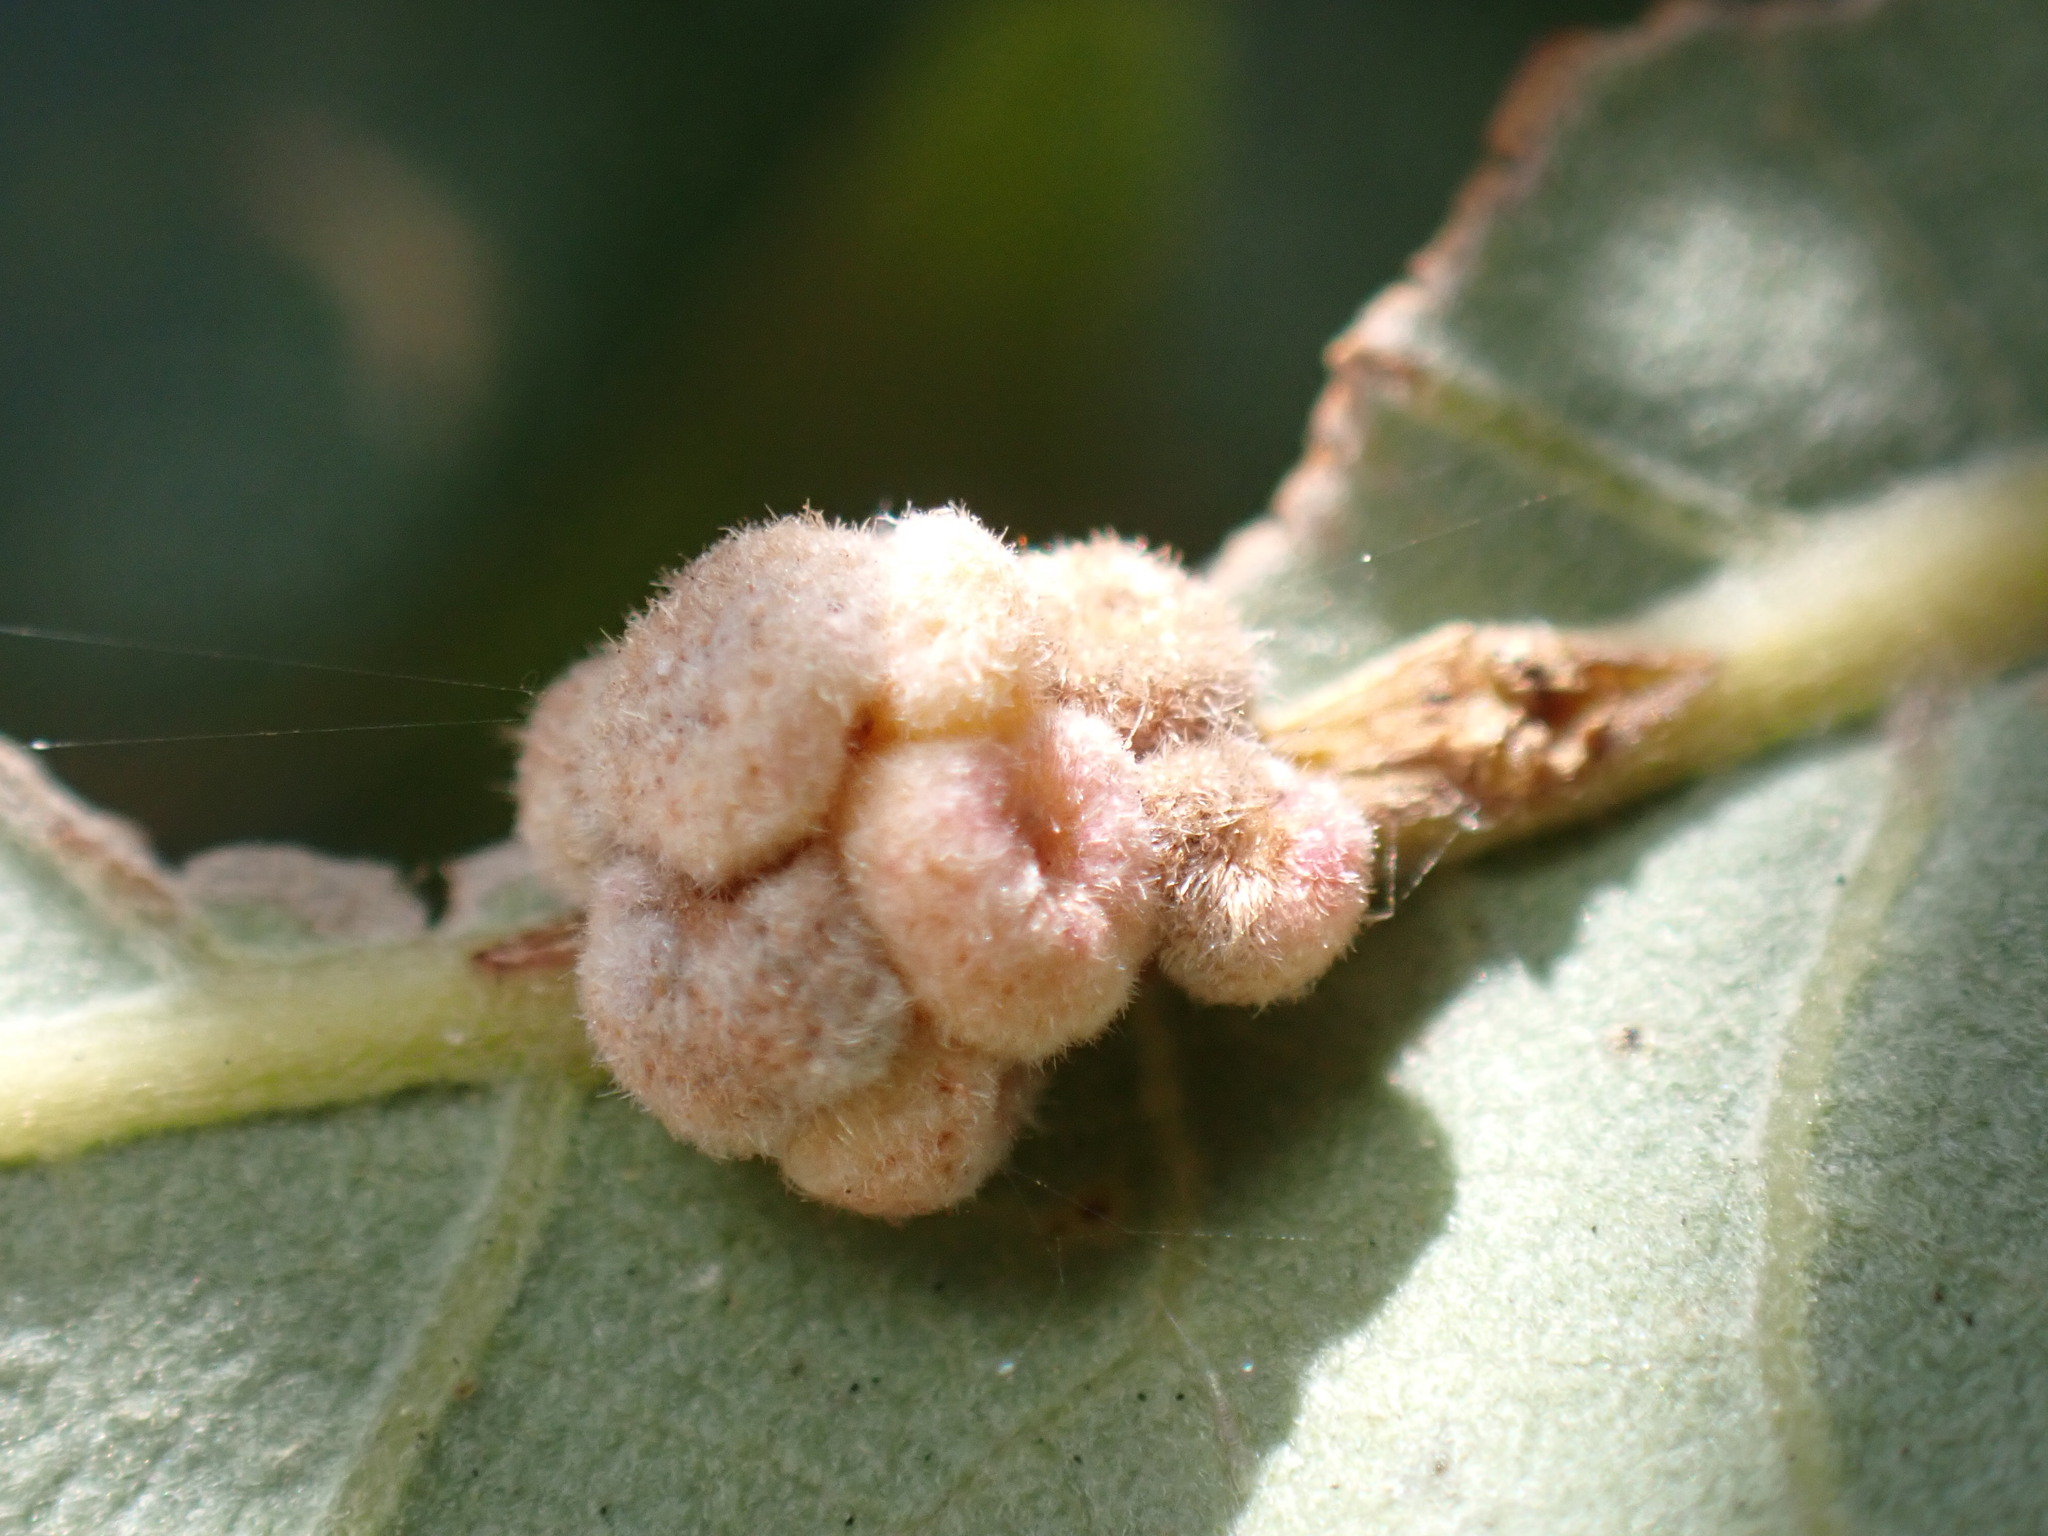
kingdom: Animalia
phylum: Arthropoda
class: Insecta
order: Hymenoptera
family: Cynipidae
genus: Andricus
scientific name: Andricus
